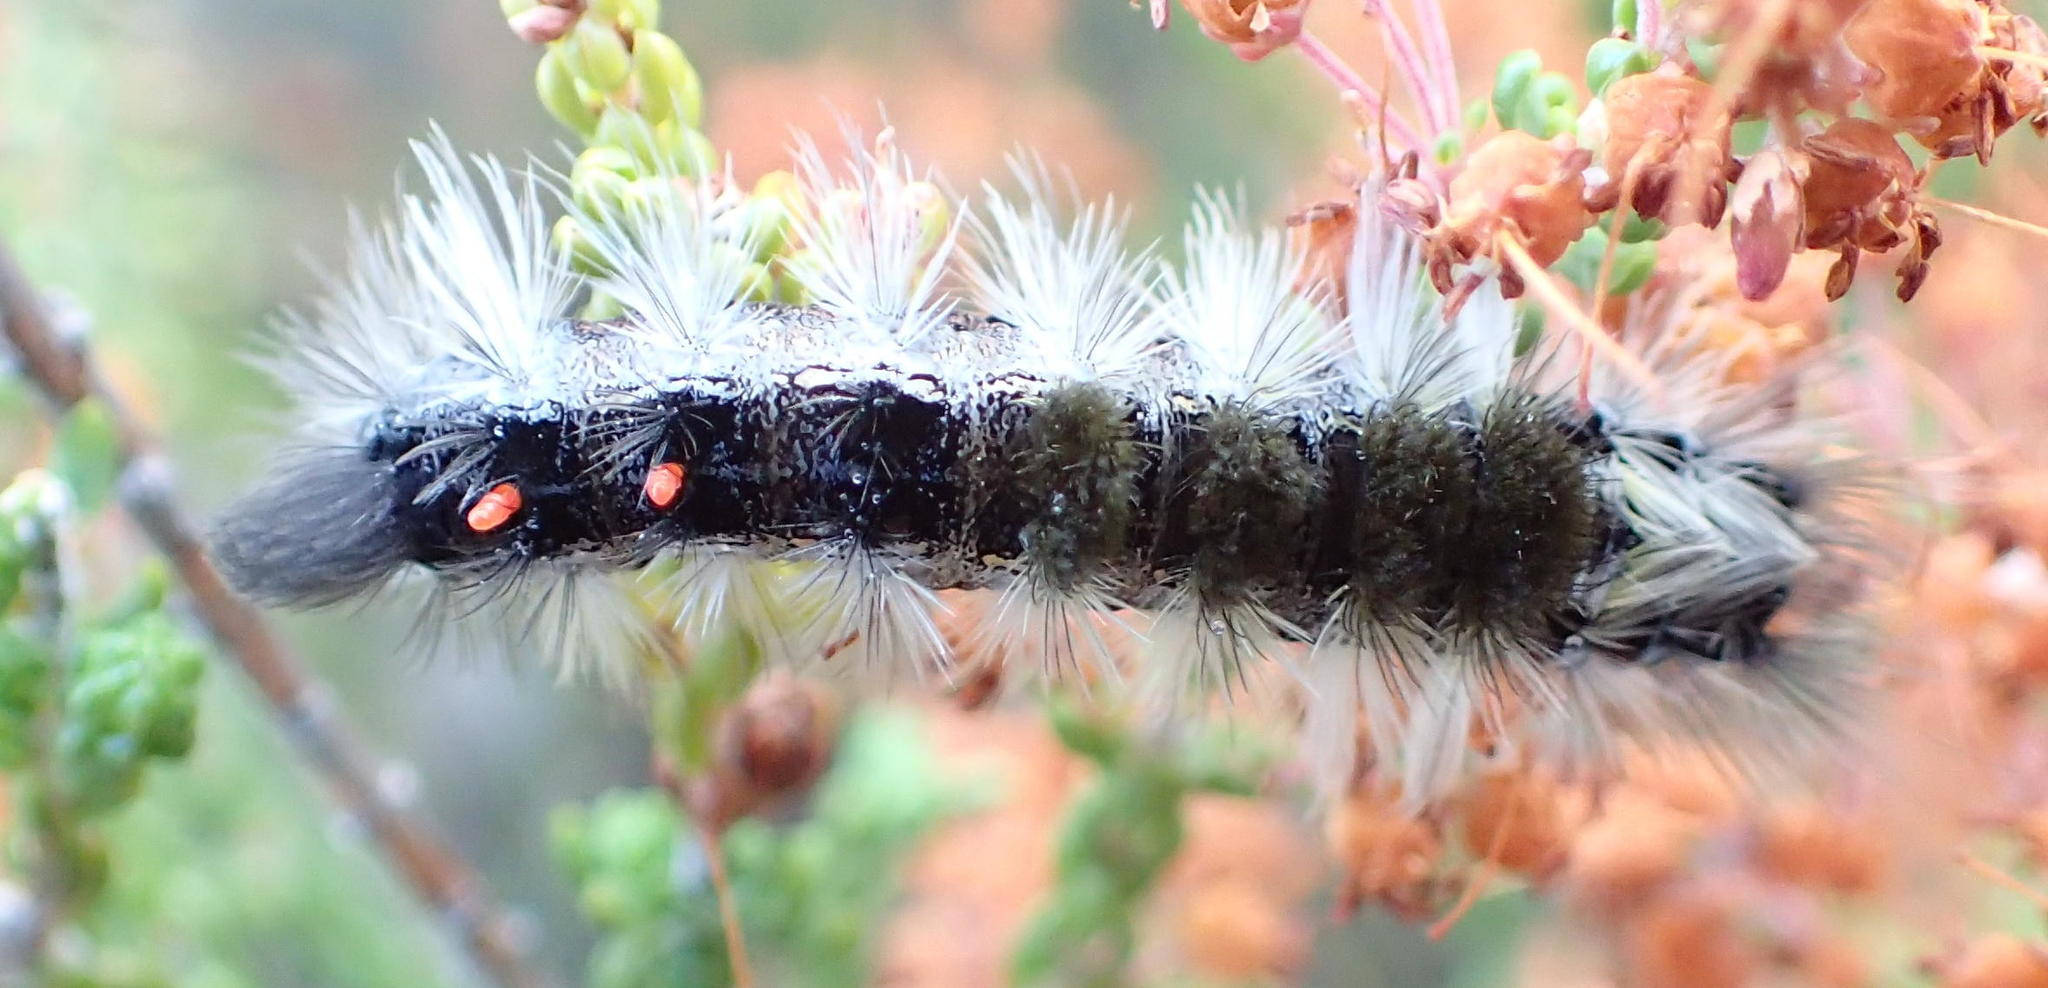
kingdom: Animalia
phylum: Arthropoda
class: Insecta
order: Lepidoptera
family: Erebidae
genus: Bracharoa
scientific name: Bracharoa dregei
